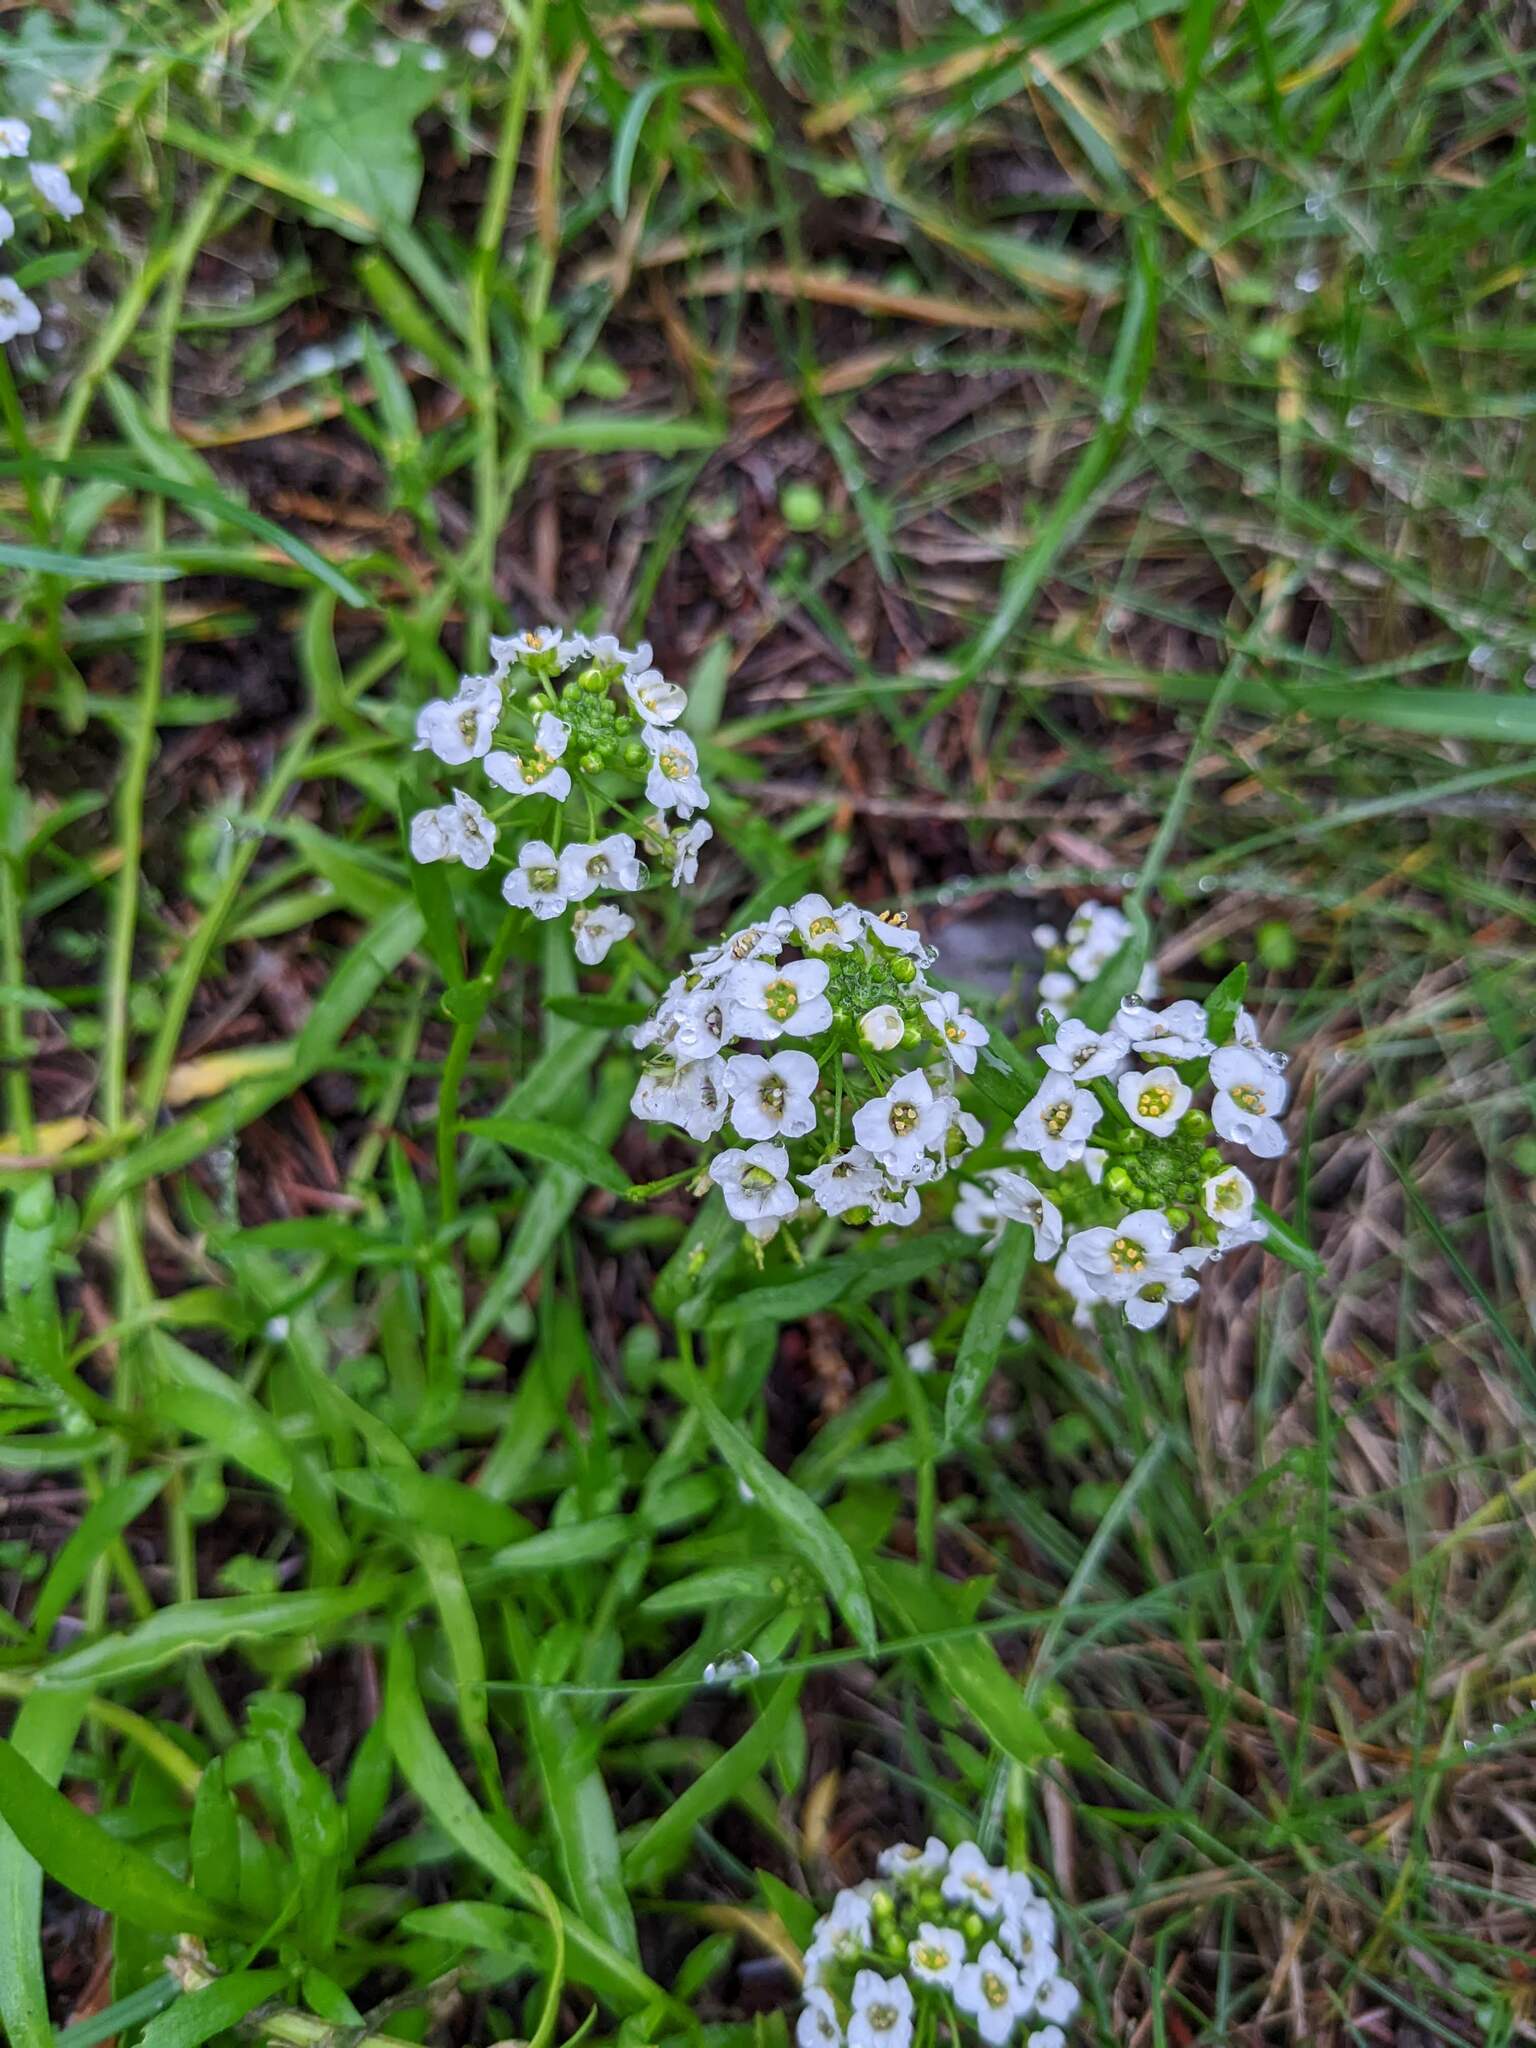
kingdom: Plantae
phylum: Tracheophyta
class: Magnoliopsida
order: Brassicales
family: Brassicaceae
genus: Lobularia
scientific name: Lobularia maritima
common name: Sweet alison
